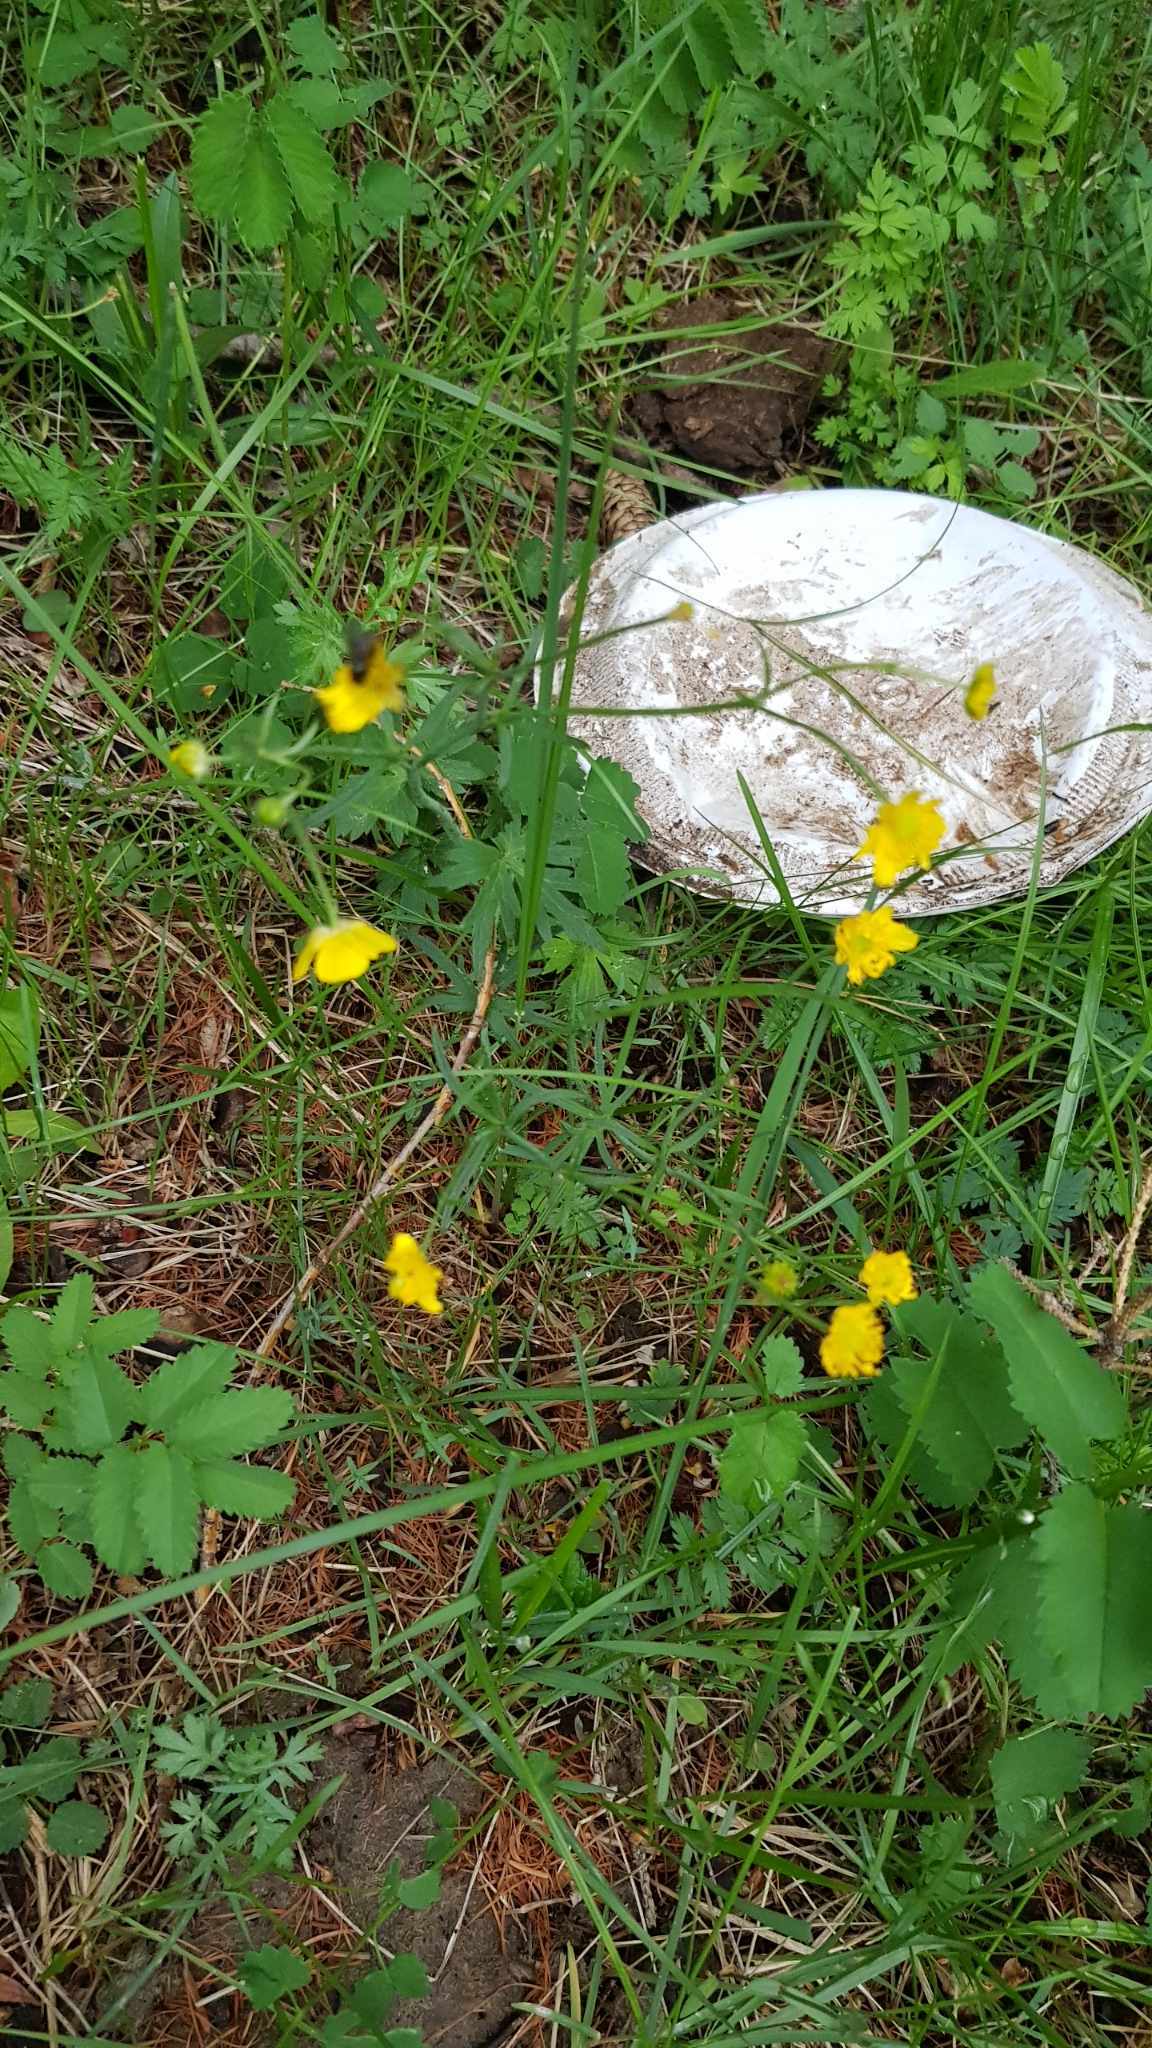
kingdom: Plantae
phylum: Tracheophyta
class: Magnoliopsida
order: Ranunculales
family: Ranunculaceae
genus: Ranunculus
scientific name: Ranunculus acris
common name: Meadow buttercup
